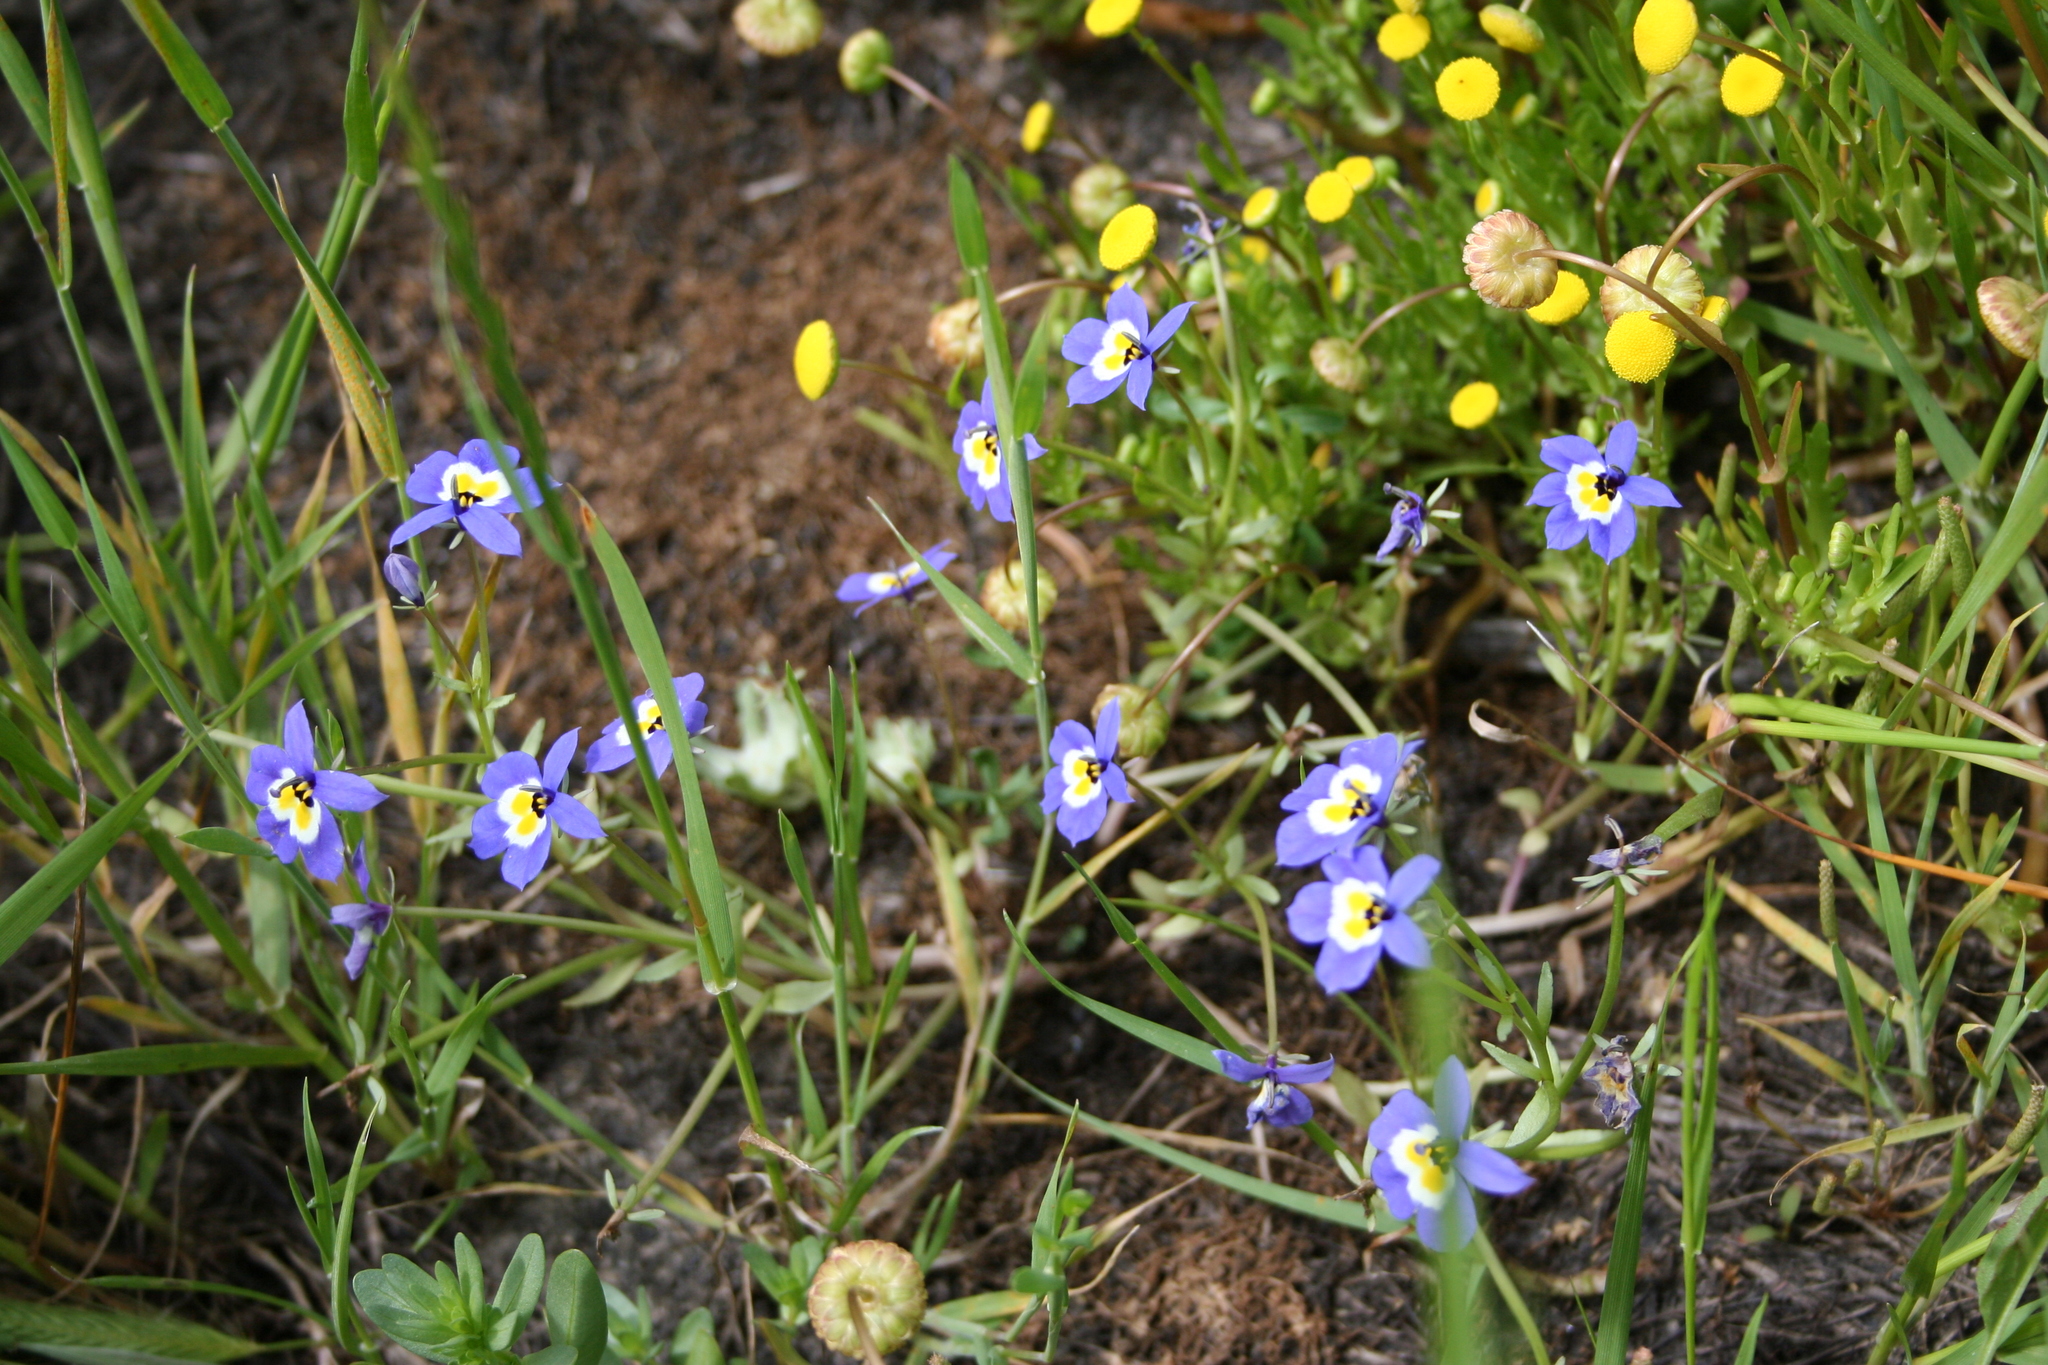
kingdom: Plantae
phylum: Tracheophyta
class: Magnoliopsida
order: Asterales
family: Campanulaceae
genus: Downingia
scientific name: Downingia pulchella
